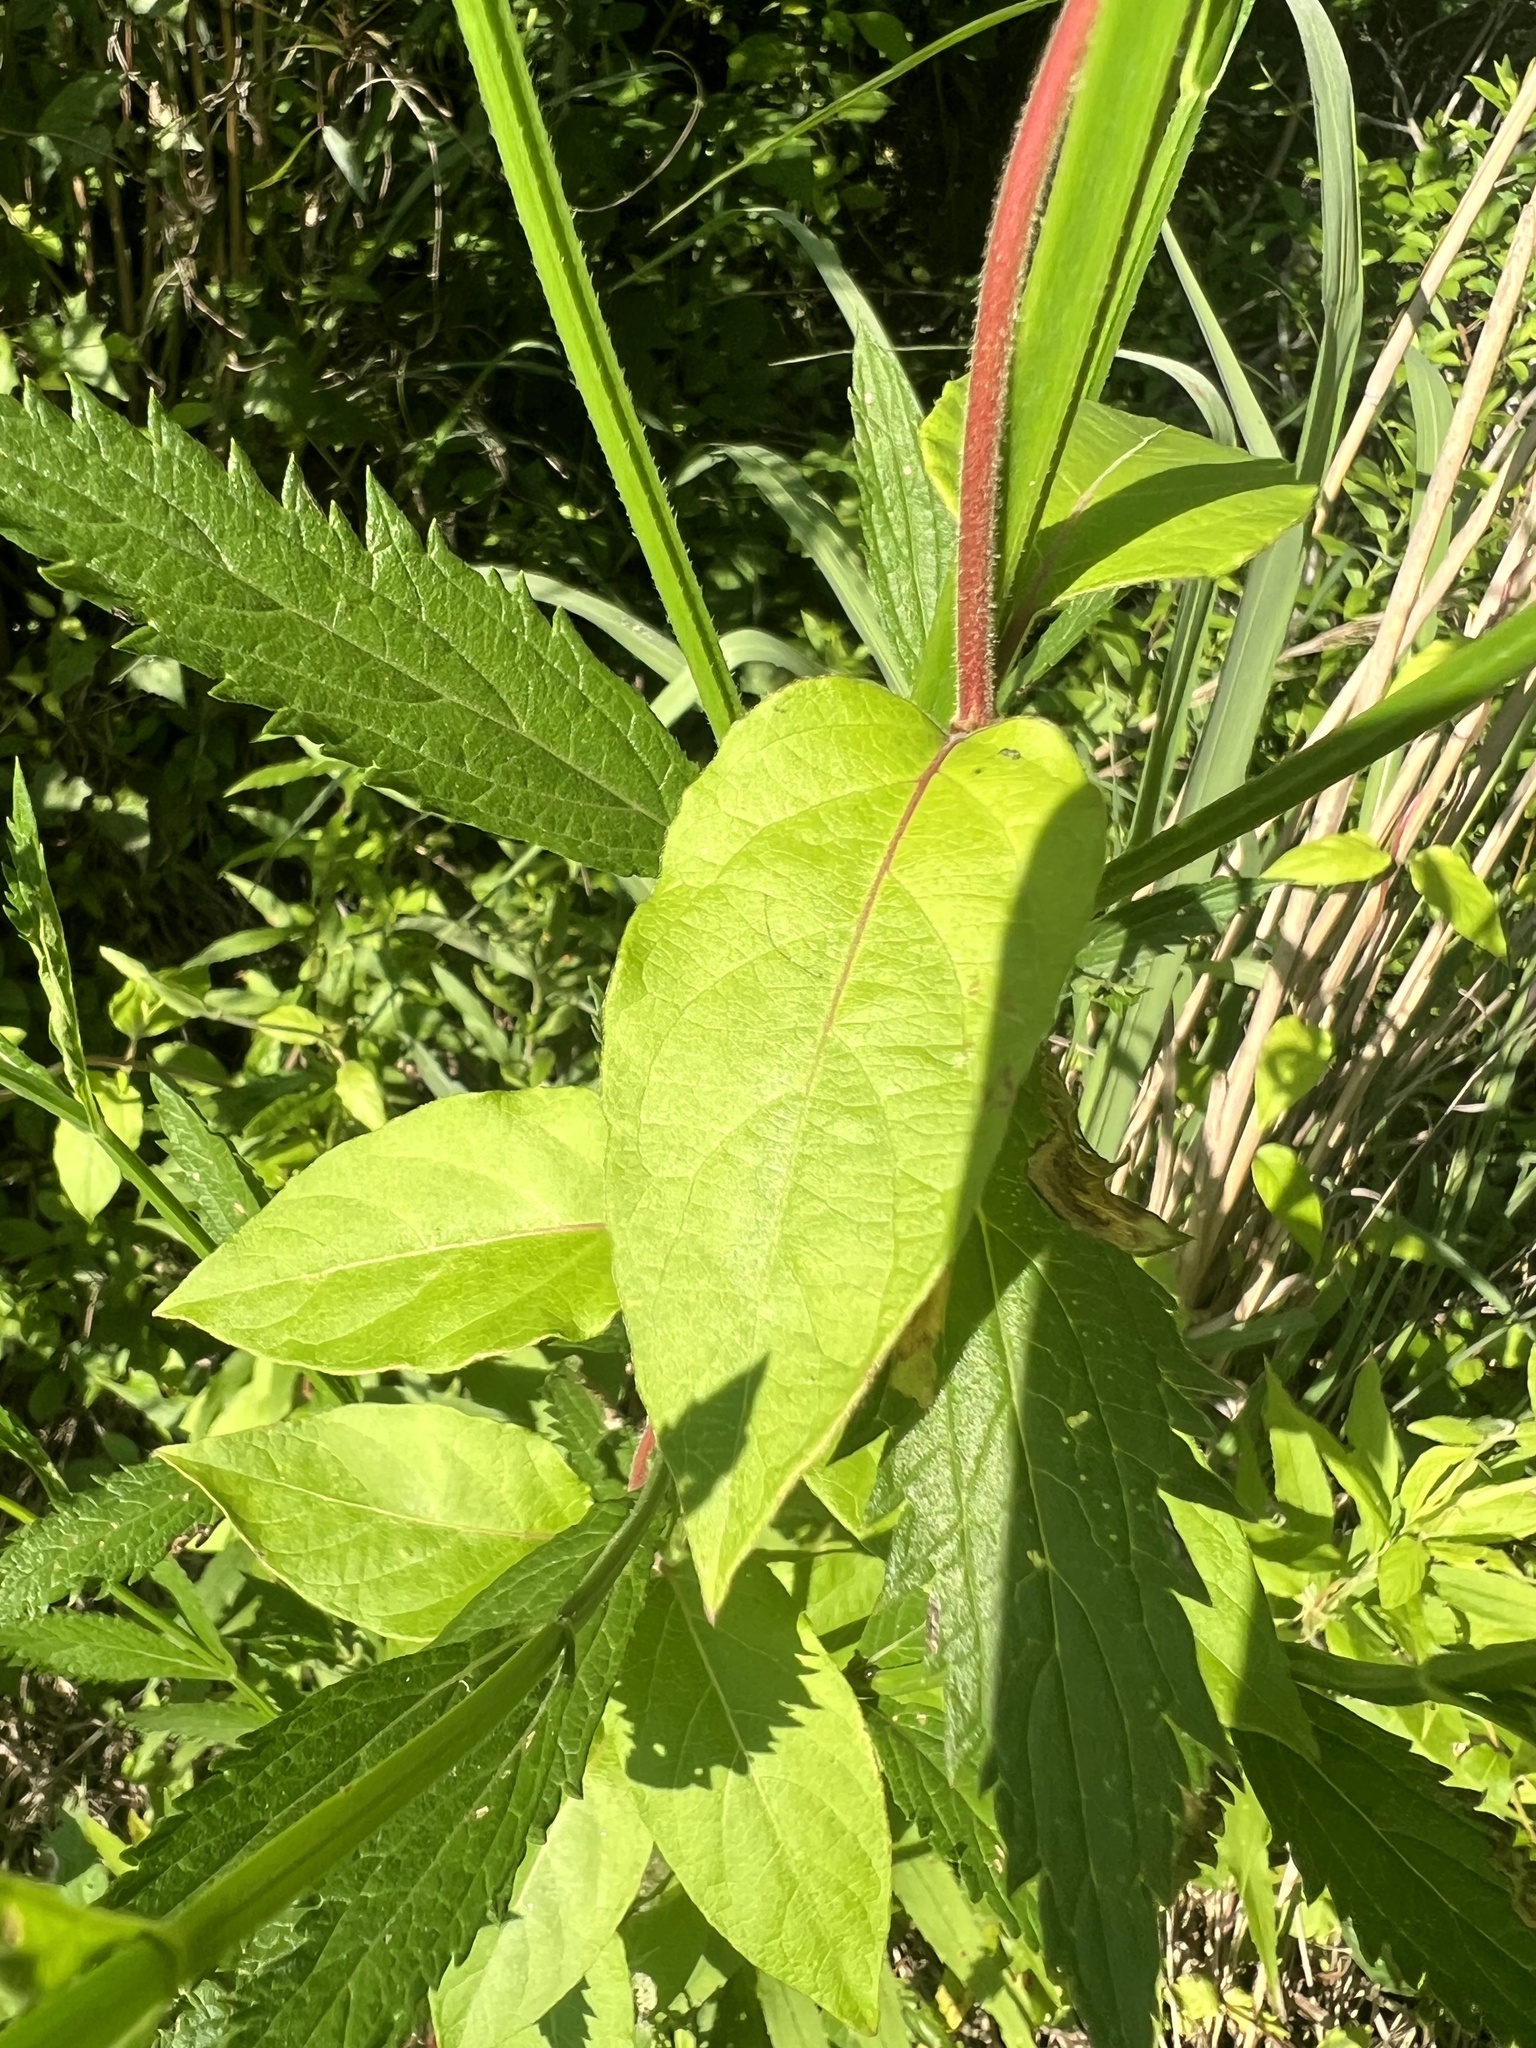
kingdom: Plantae
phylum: Tracheophyta
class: Magnoliopsida
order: Dipsacales
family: Caprifoliaceae
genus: Lonicera
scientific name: Lonicera japonica
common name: Japanese honeysuckle
